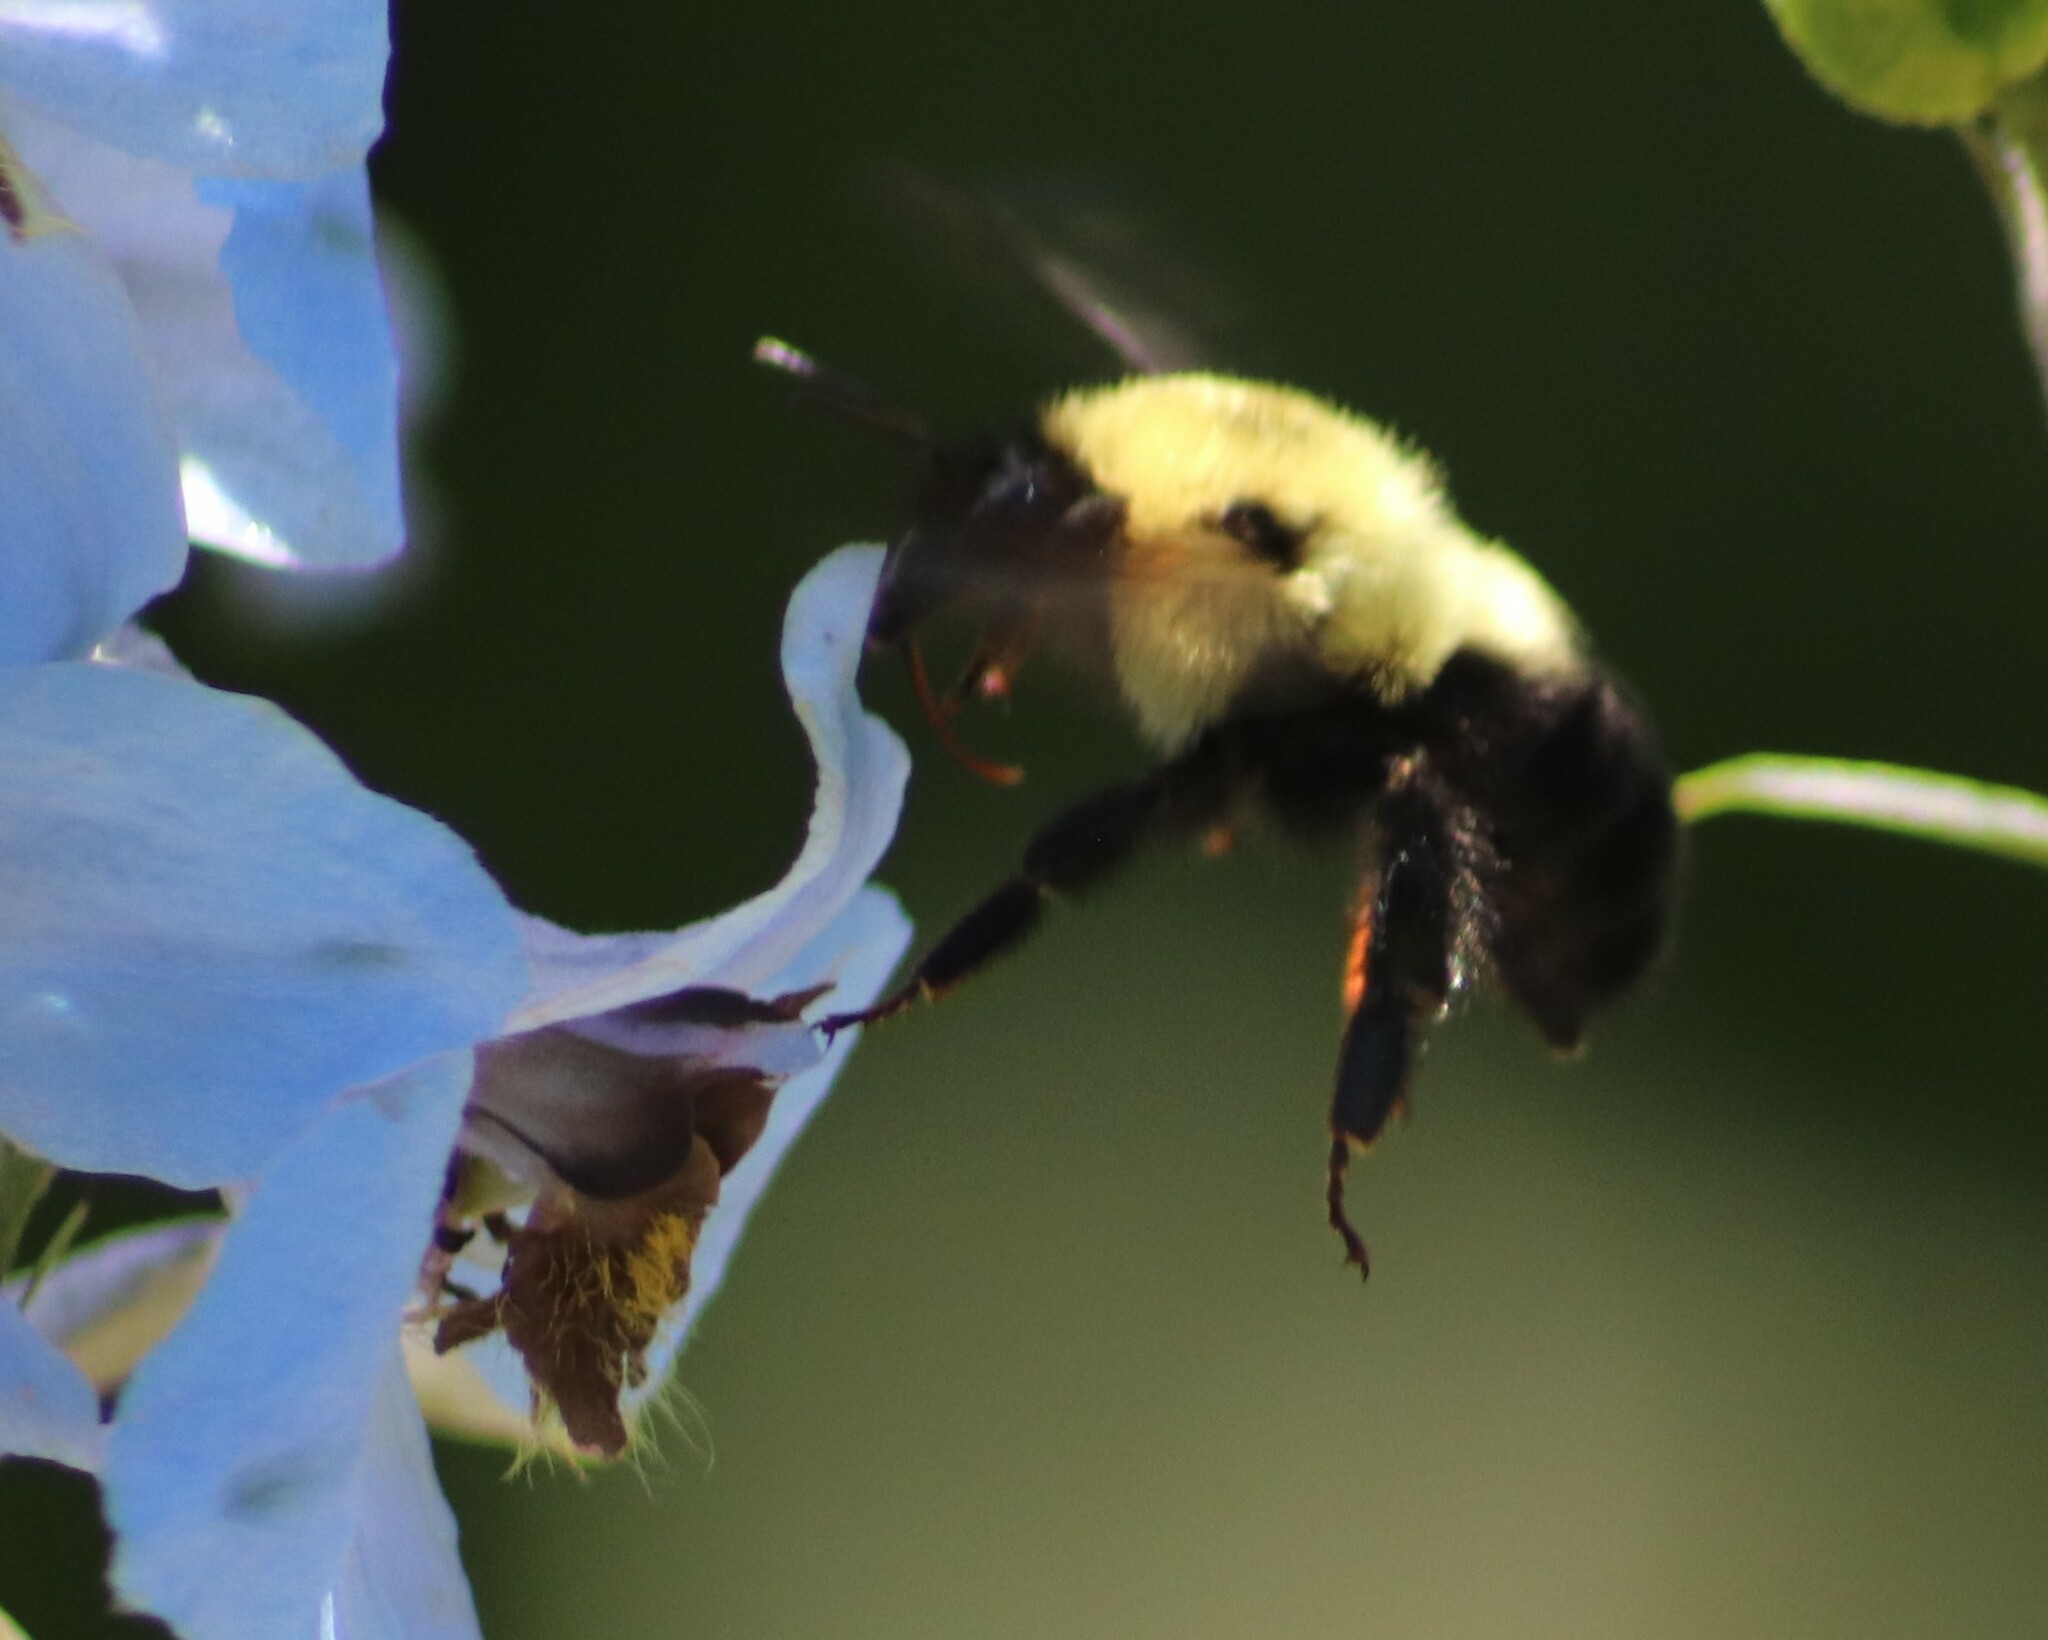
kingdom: Animalia
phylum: Arthropoda
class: Insecta
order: Hymenoptera
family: Apidae
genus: Bombus
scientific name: Bombus bimaculatus
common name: Two-spotted bumble bee
